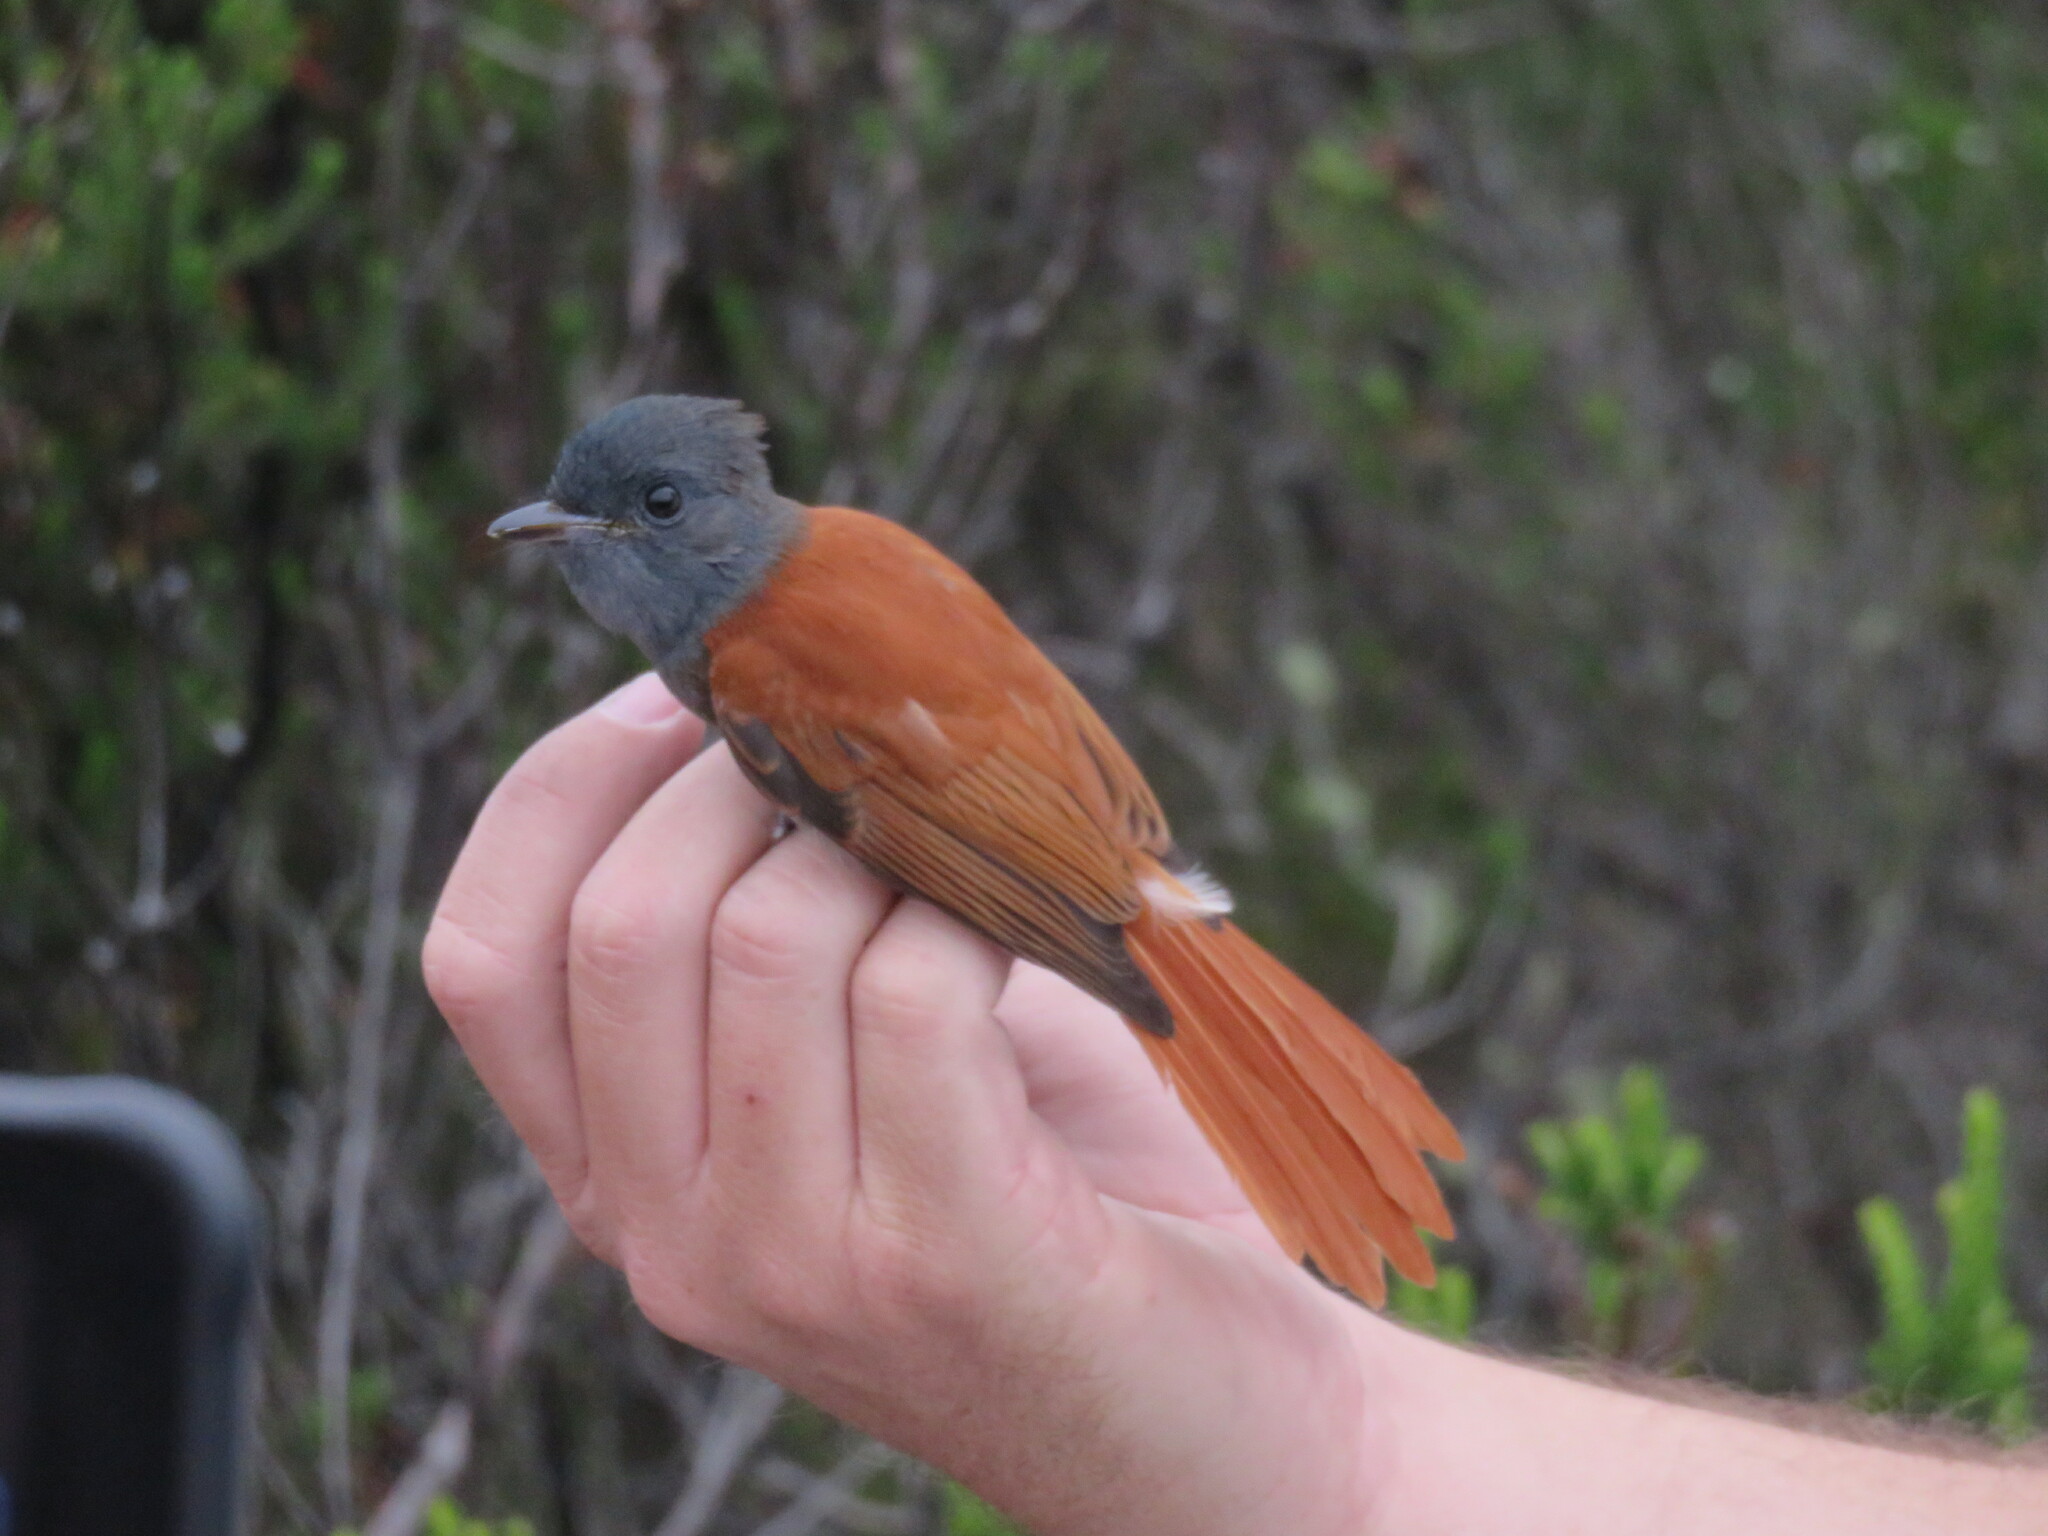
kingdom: Animalia
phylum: Chordata
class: Aves
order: Passeriformes
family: Monarchidae
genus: Terpsiphone
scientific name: Terpsiphone viridis
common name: African paradise flycatcher
